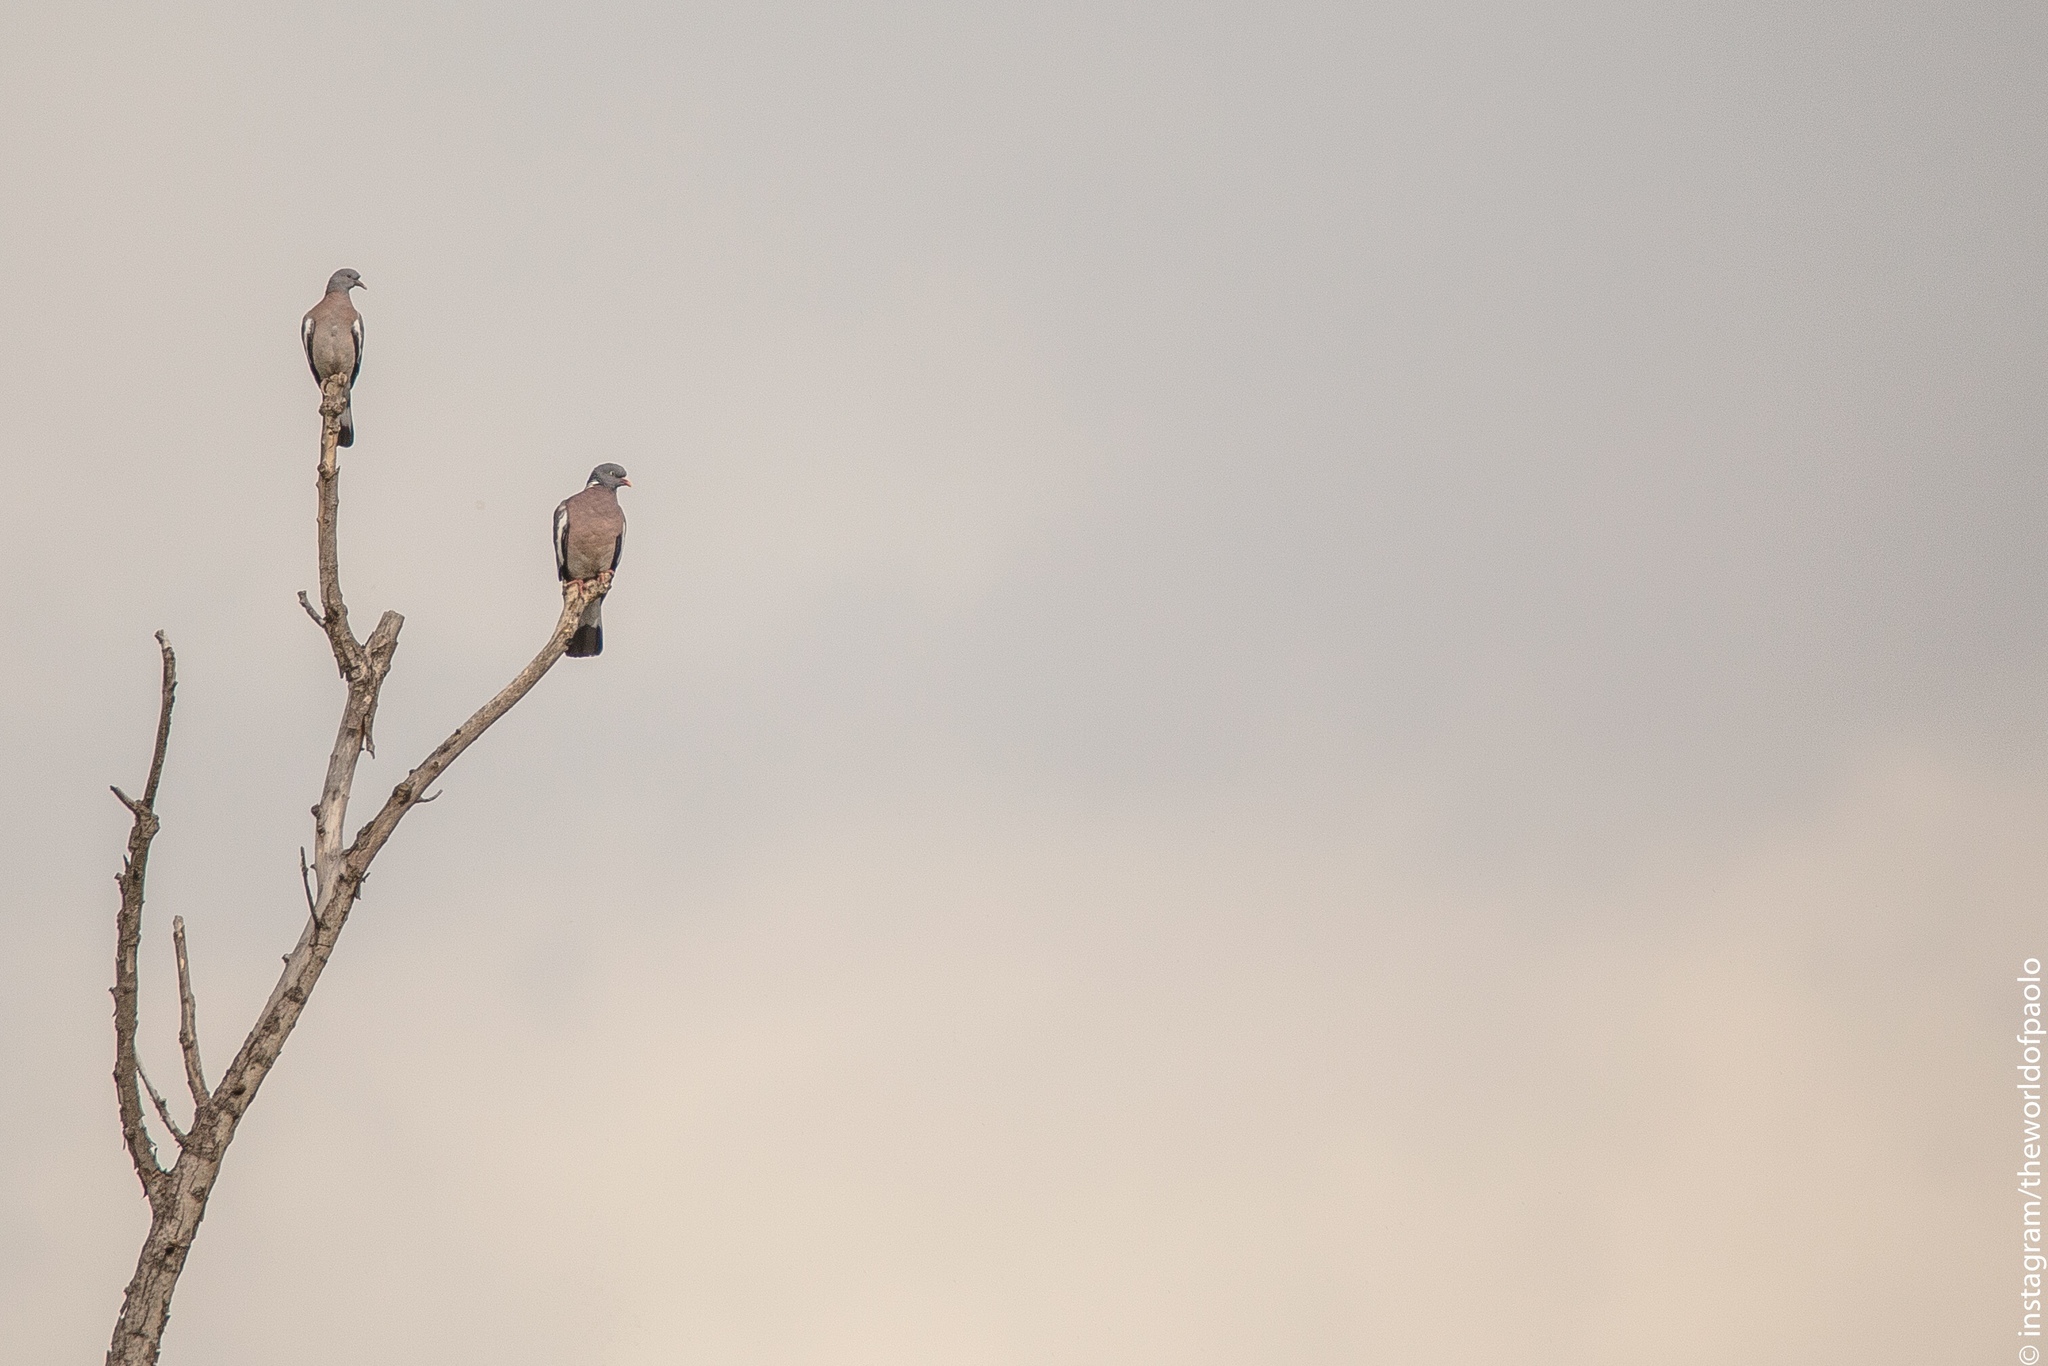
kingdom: Animalia
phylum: Chordata
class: Aves
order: Columbiformes
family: Columbidae
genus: Columba
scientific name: Columba palumbus
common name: Common wood pigeon
